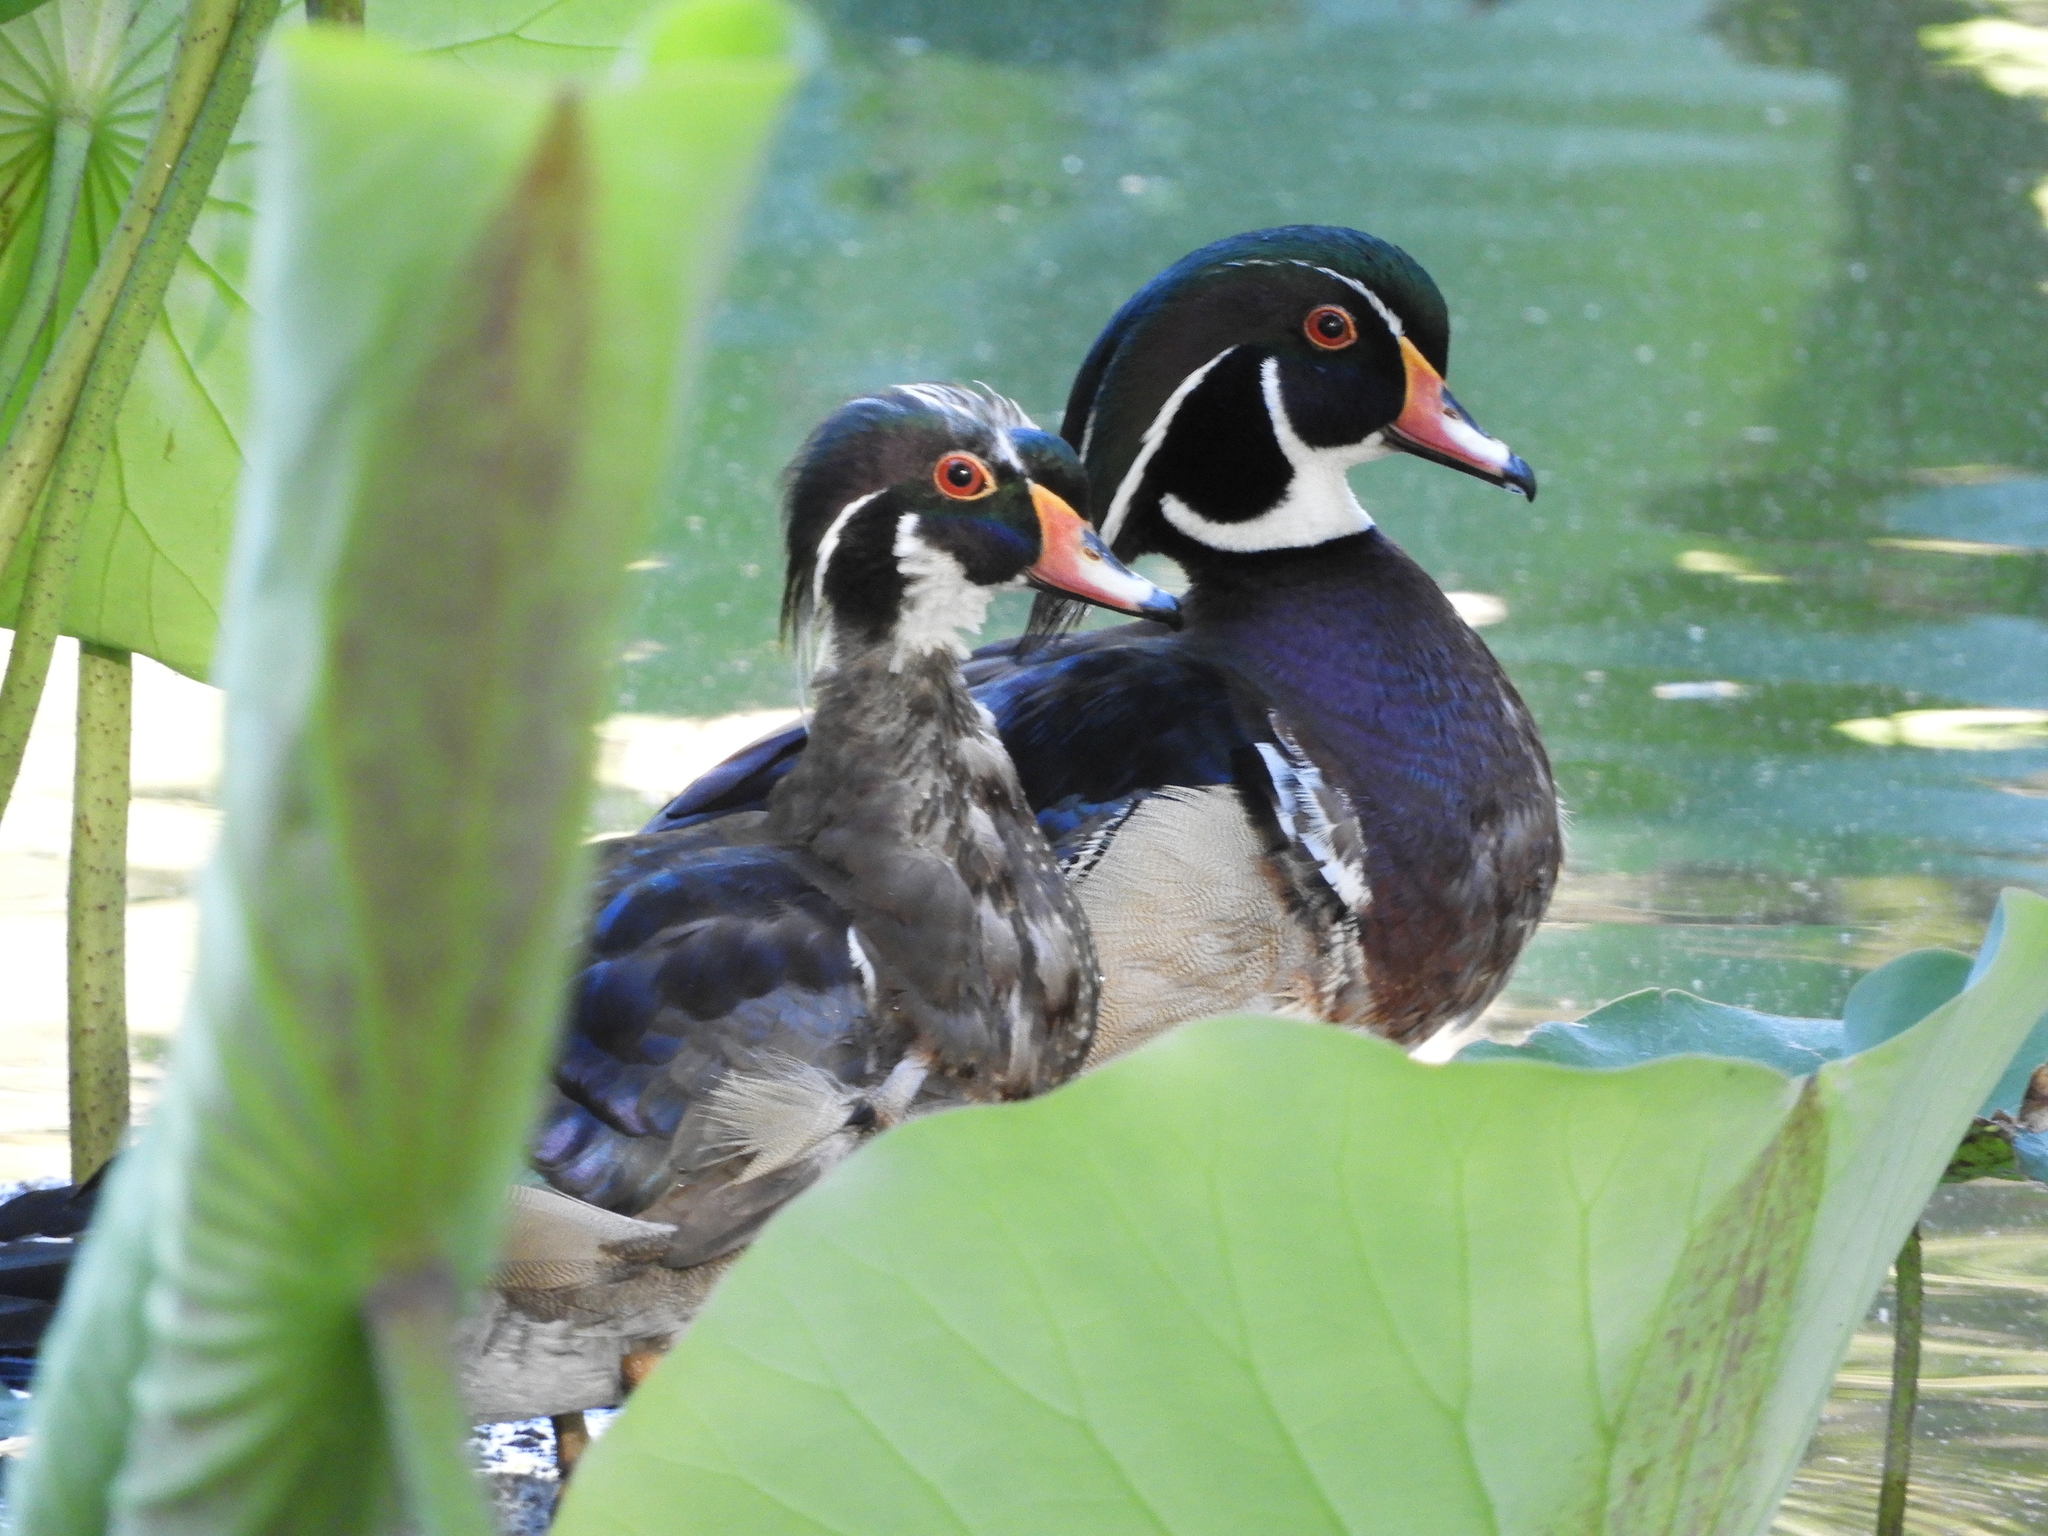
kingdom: Animalia
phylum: Chordata
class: Aves
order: Anseriformes
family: Anatidae
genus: Aix
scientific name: Aix sponsa
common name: Wood duck
